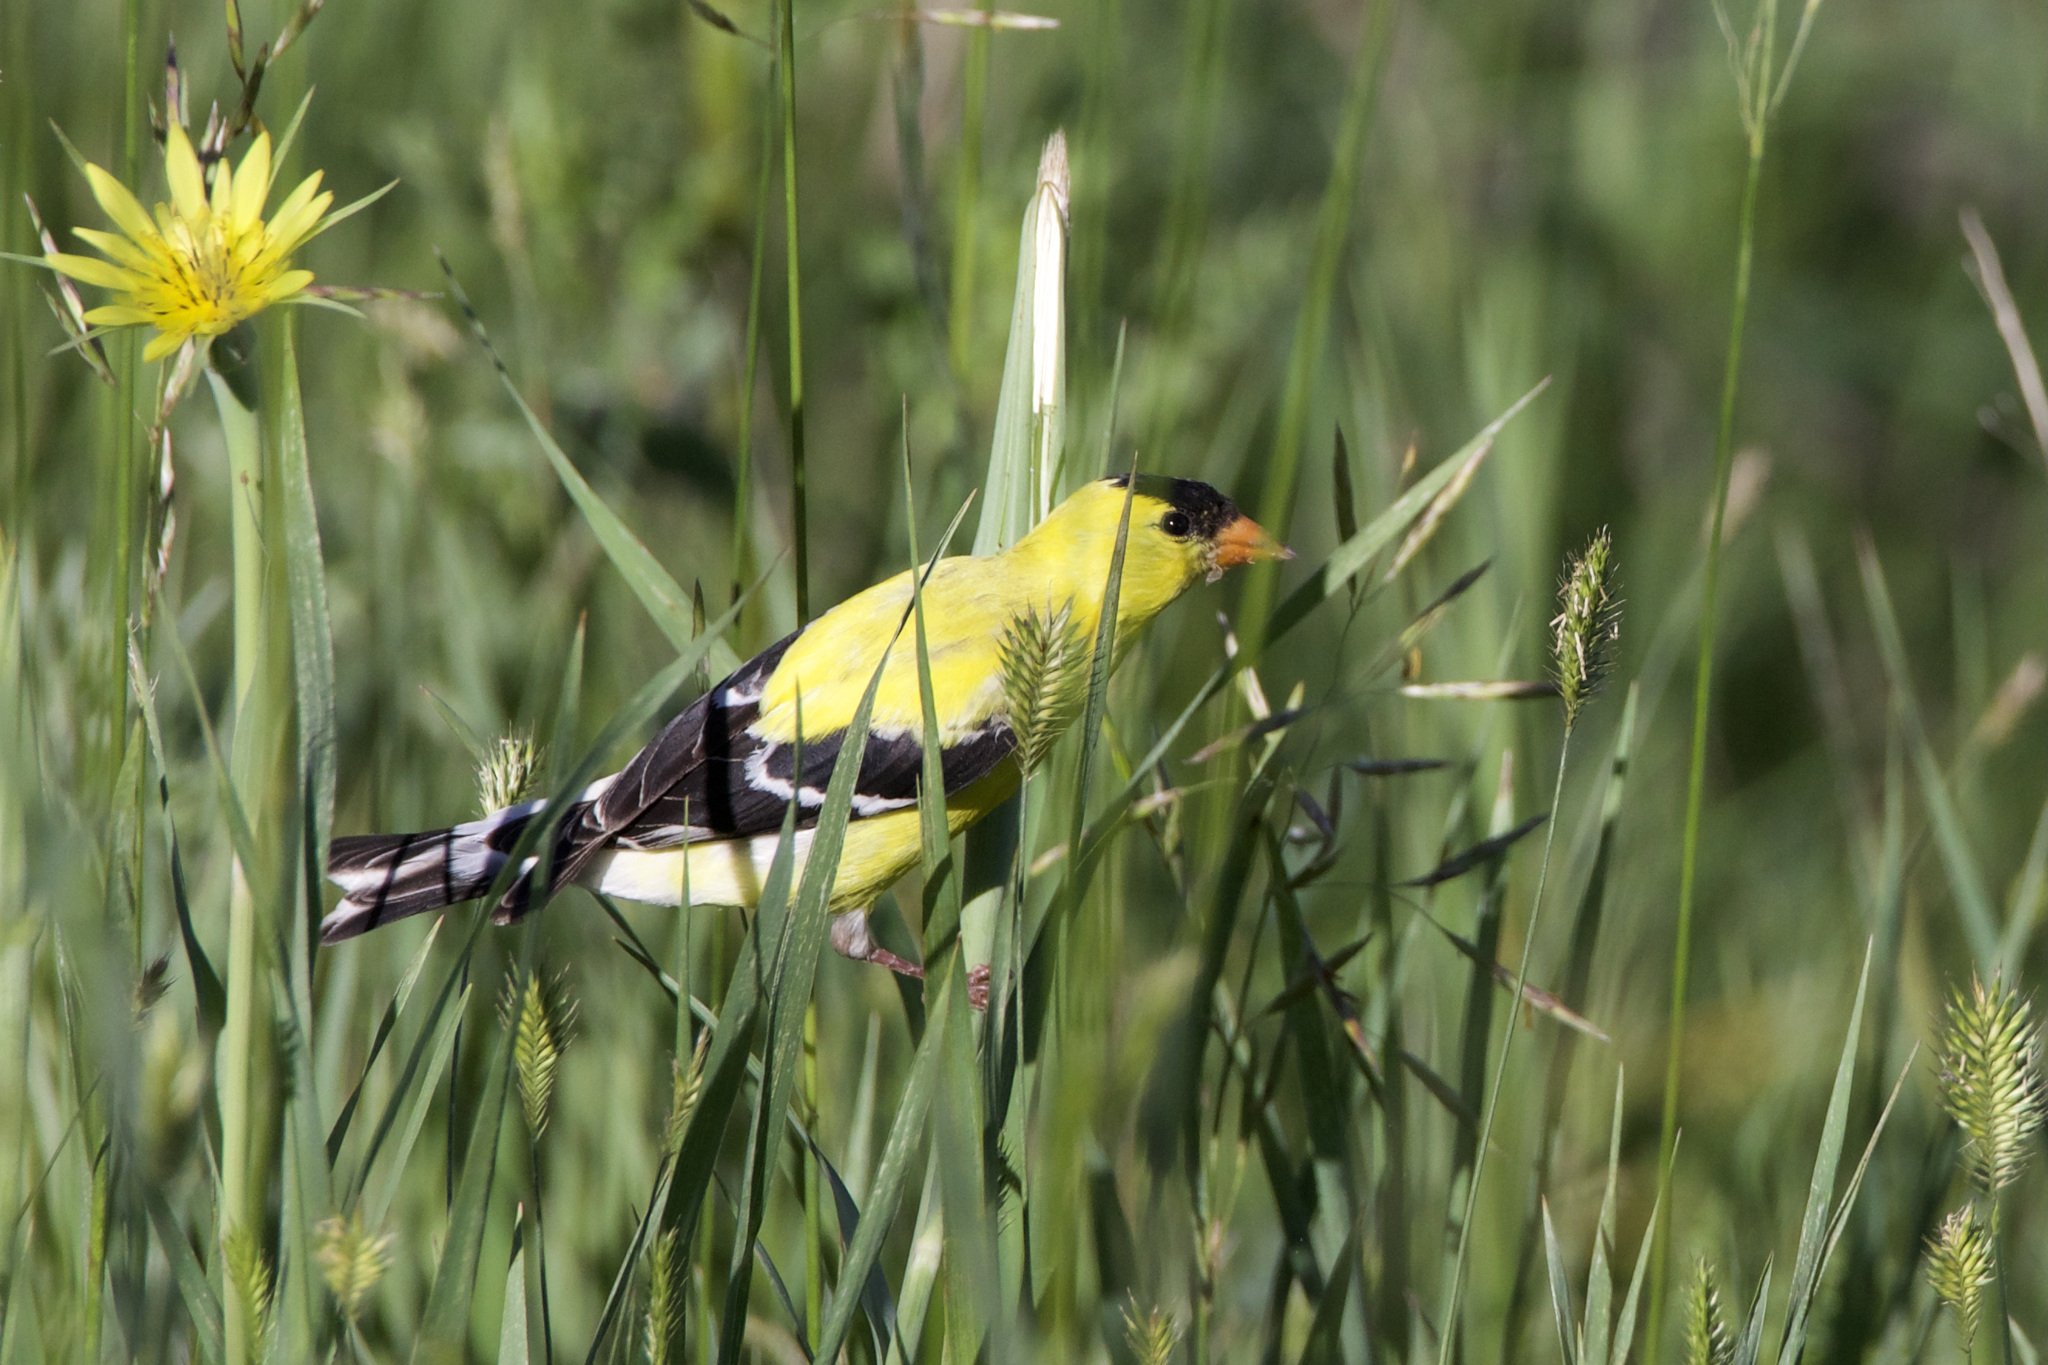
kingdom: Animalia
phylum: Chordata
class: Aves
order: Passeriformes
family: Fringillidae
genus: Spinus
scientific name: Spinus tristis
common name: American goldfinch
